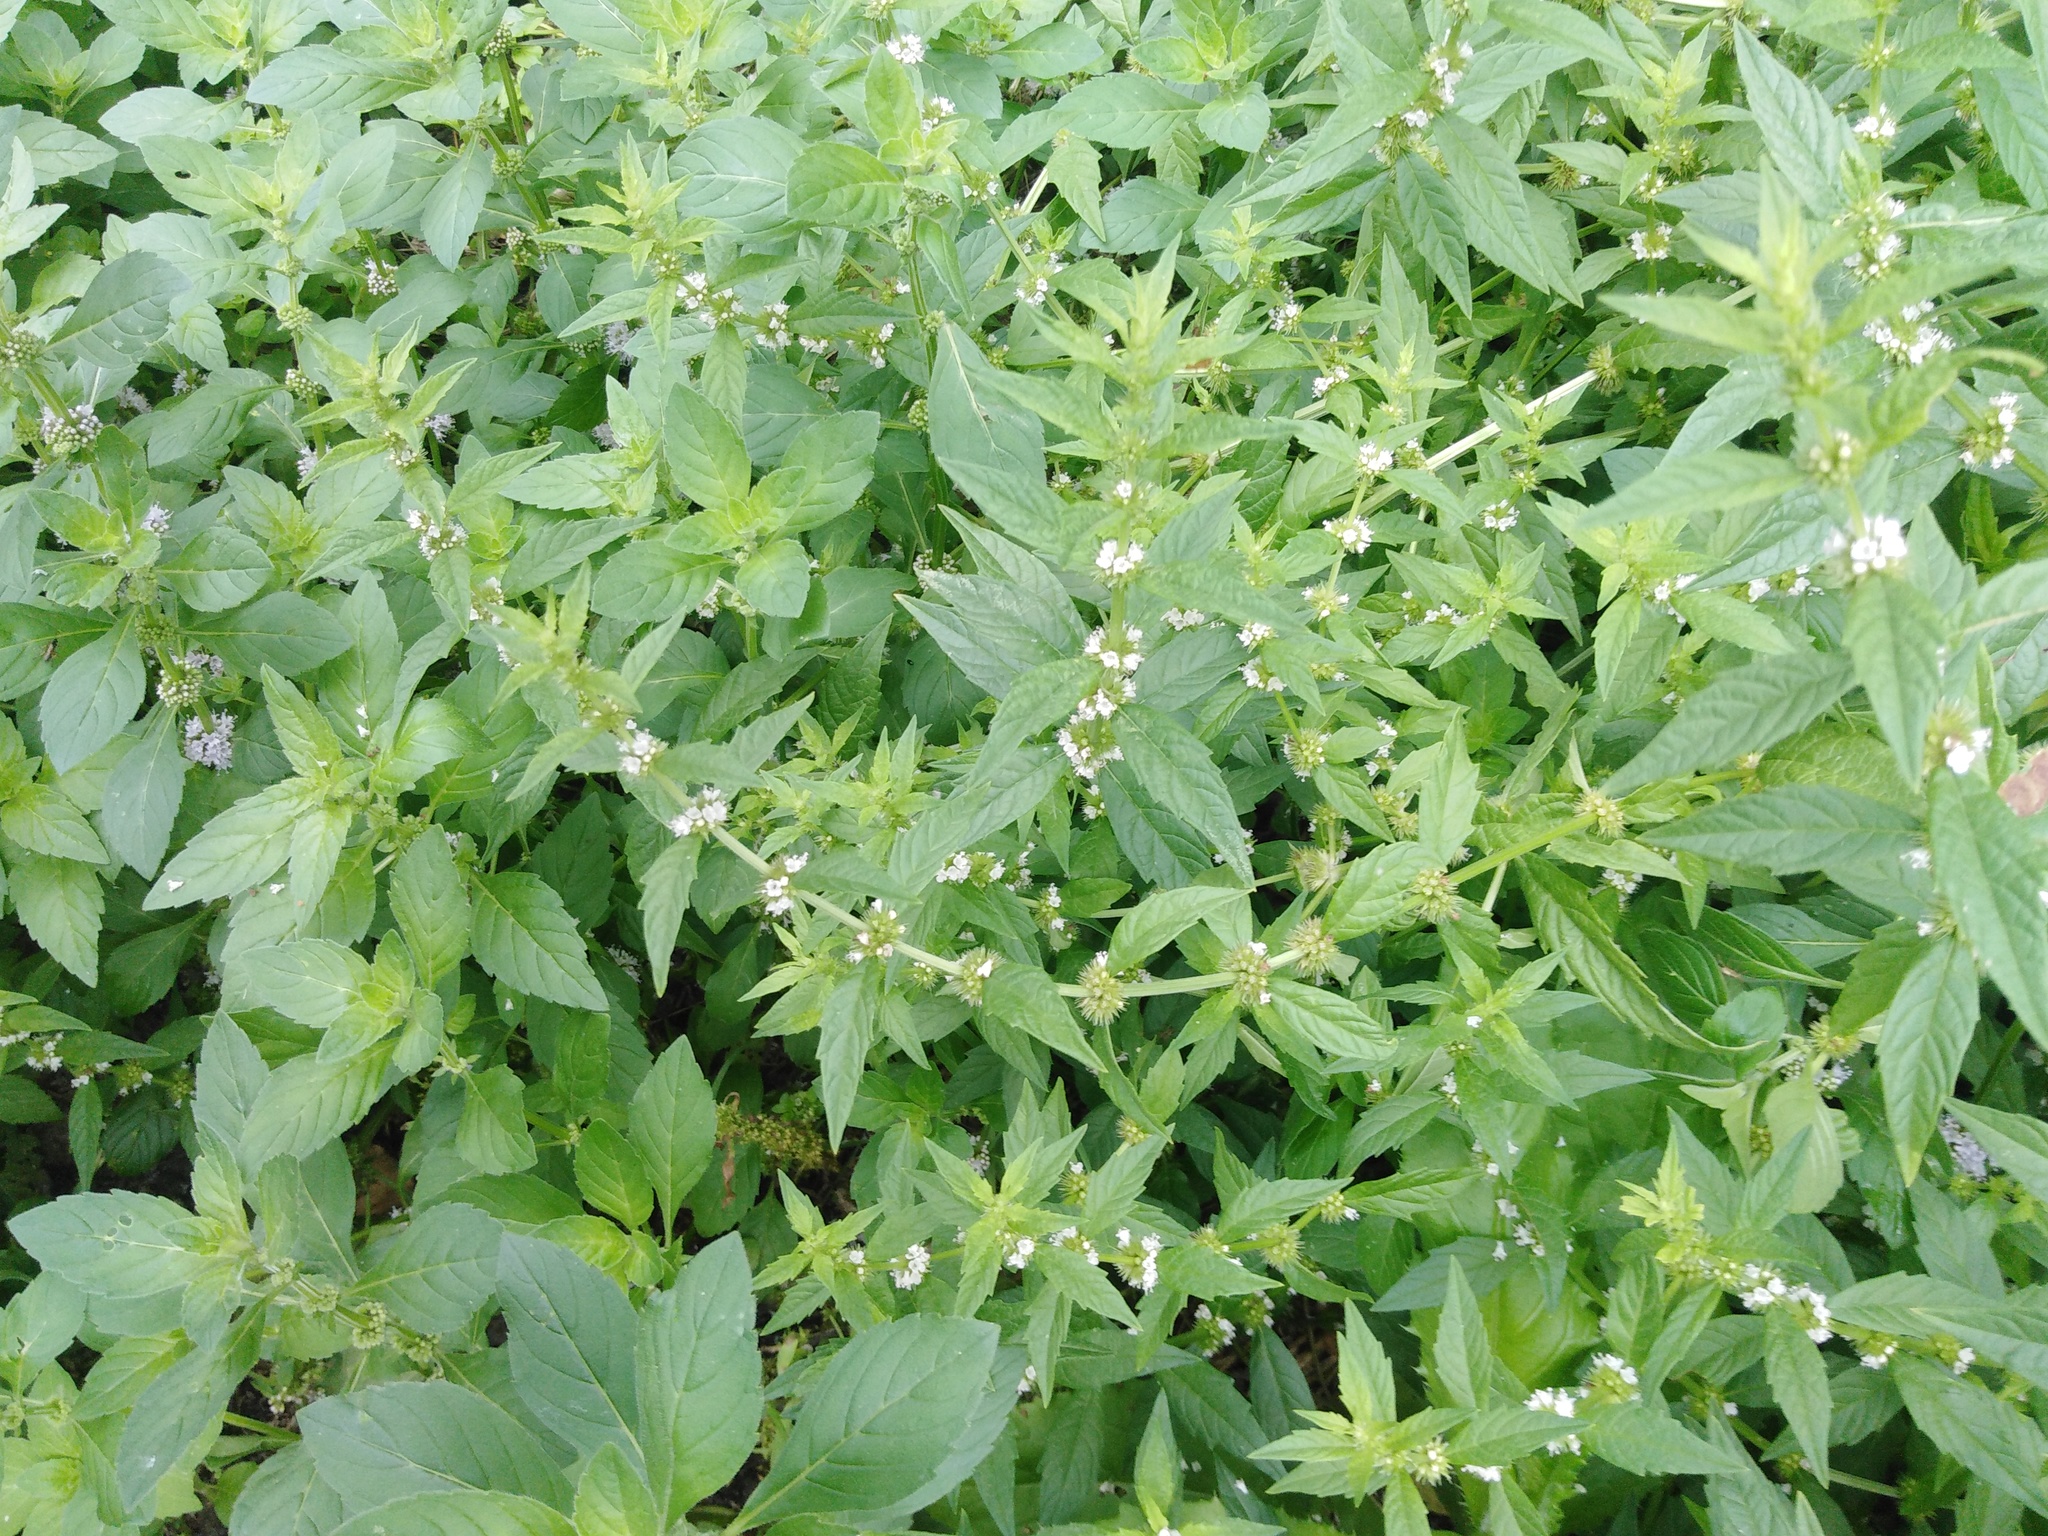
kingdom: Plantae
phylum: Tracheophyta
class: Magnoliopsida
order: Lamiales
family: Lamiaceae
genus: Lycopus
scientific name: Lycopus europaeus
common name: European bugleweed
